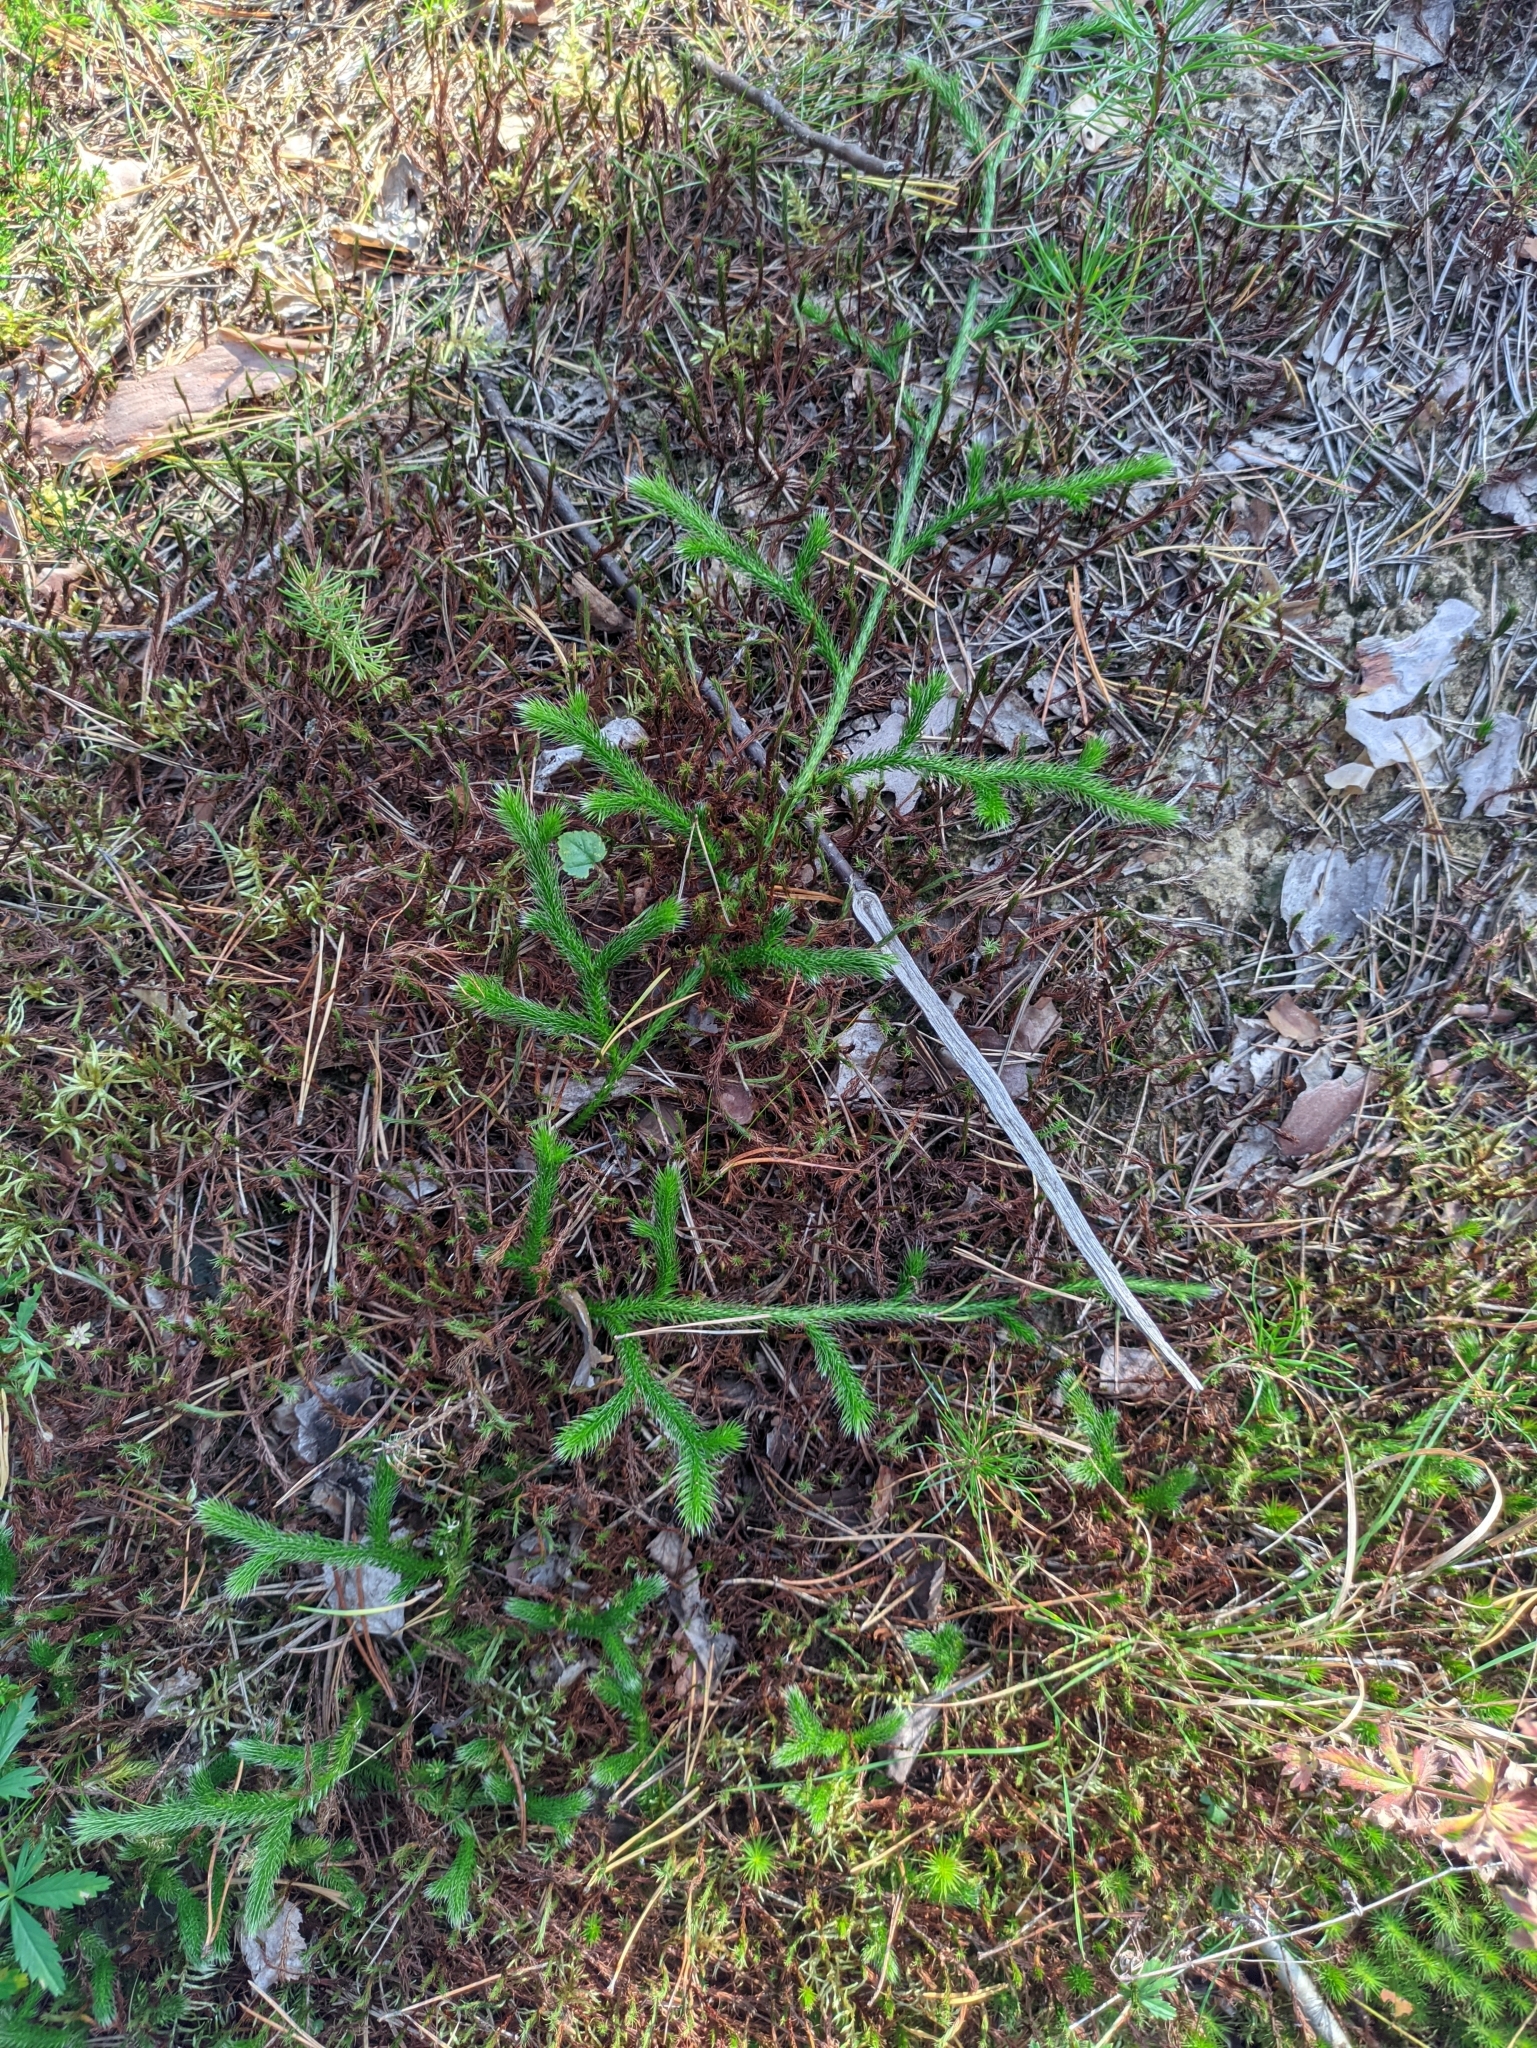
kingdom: Plantae
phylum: Tracheophyta
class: Lycopodiopsida
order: Lycopodiales
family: Lycopodiaceae
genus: Lycopodium
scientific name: Lycopodium clavatum
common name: Stag's-horn clubmoss
